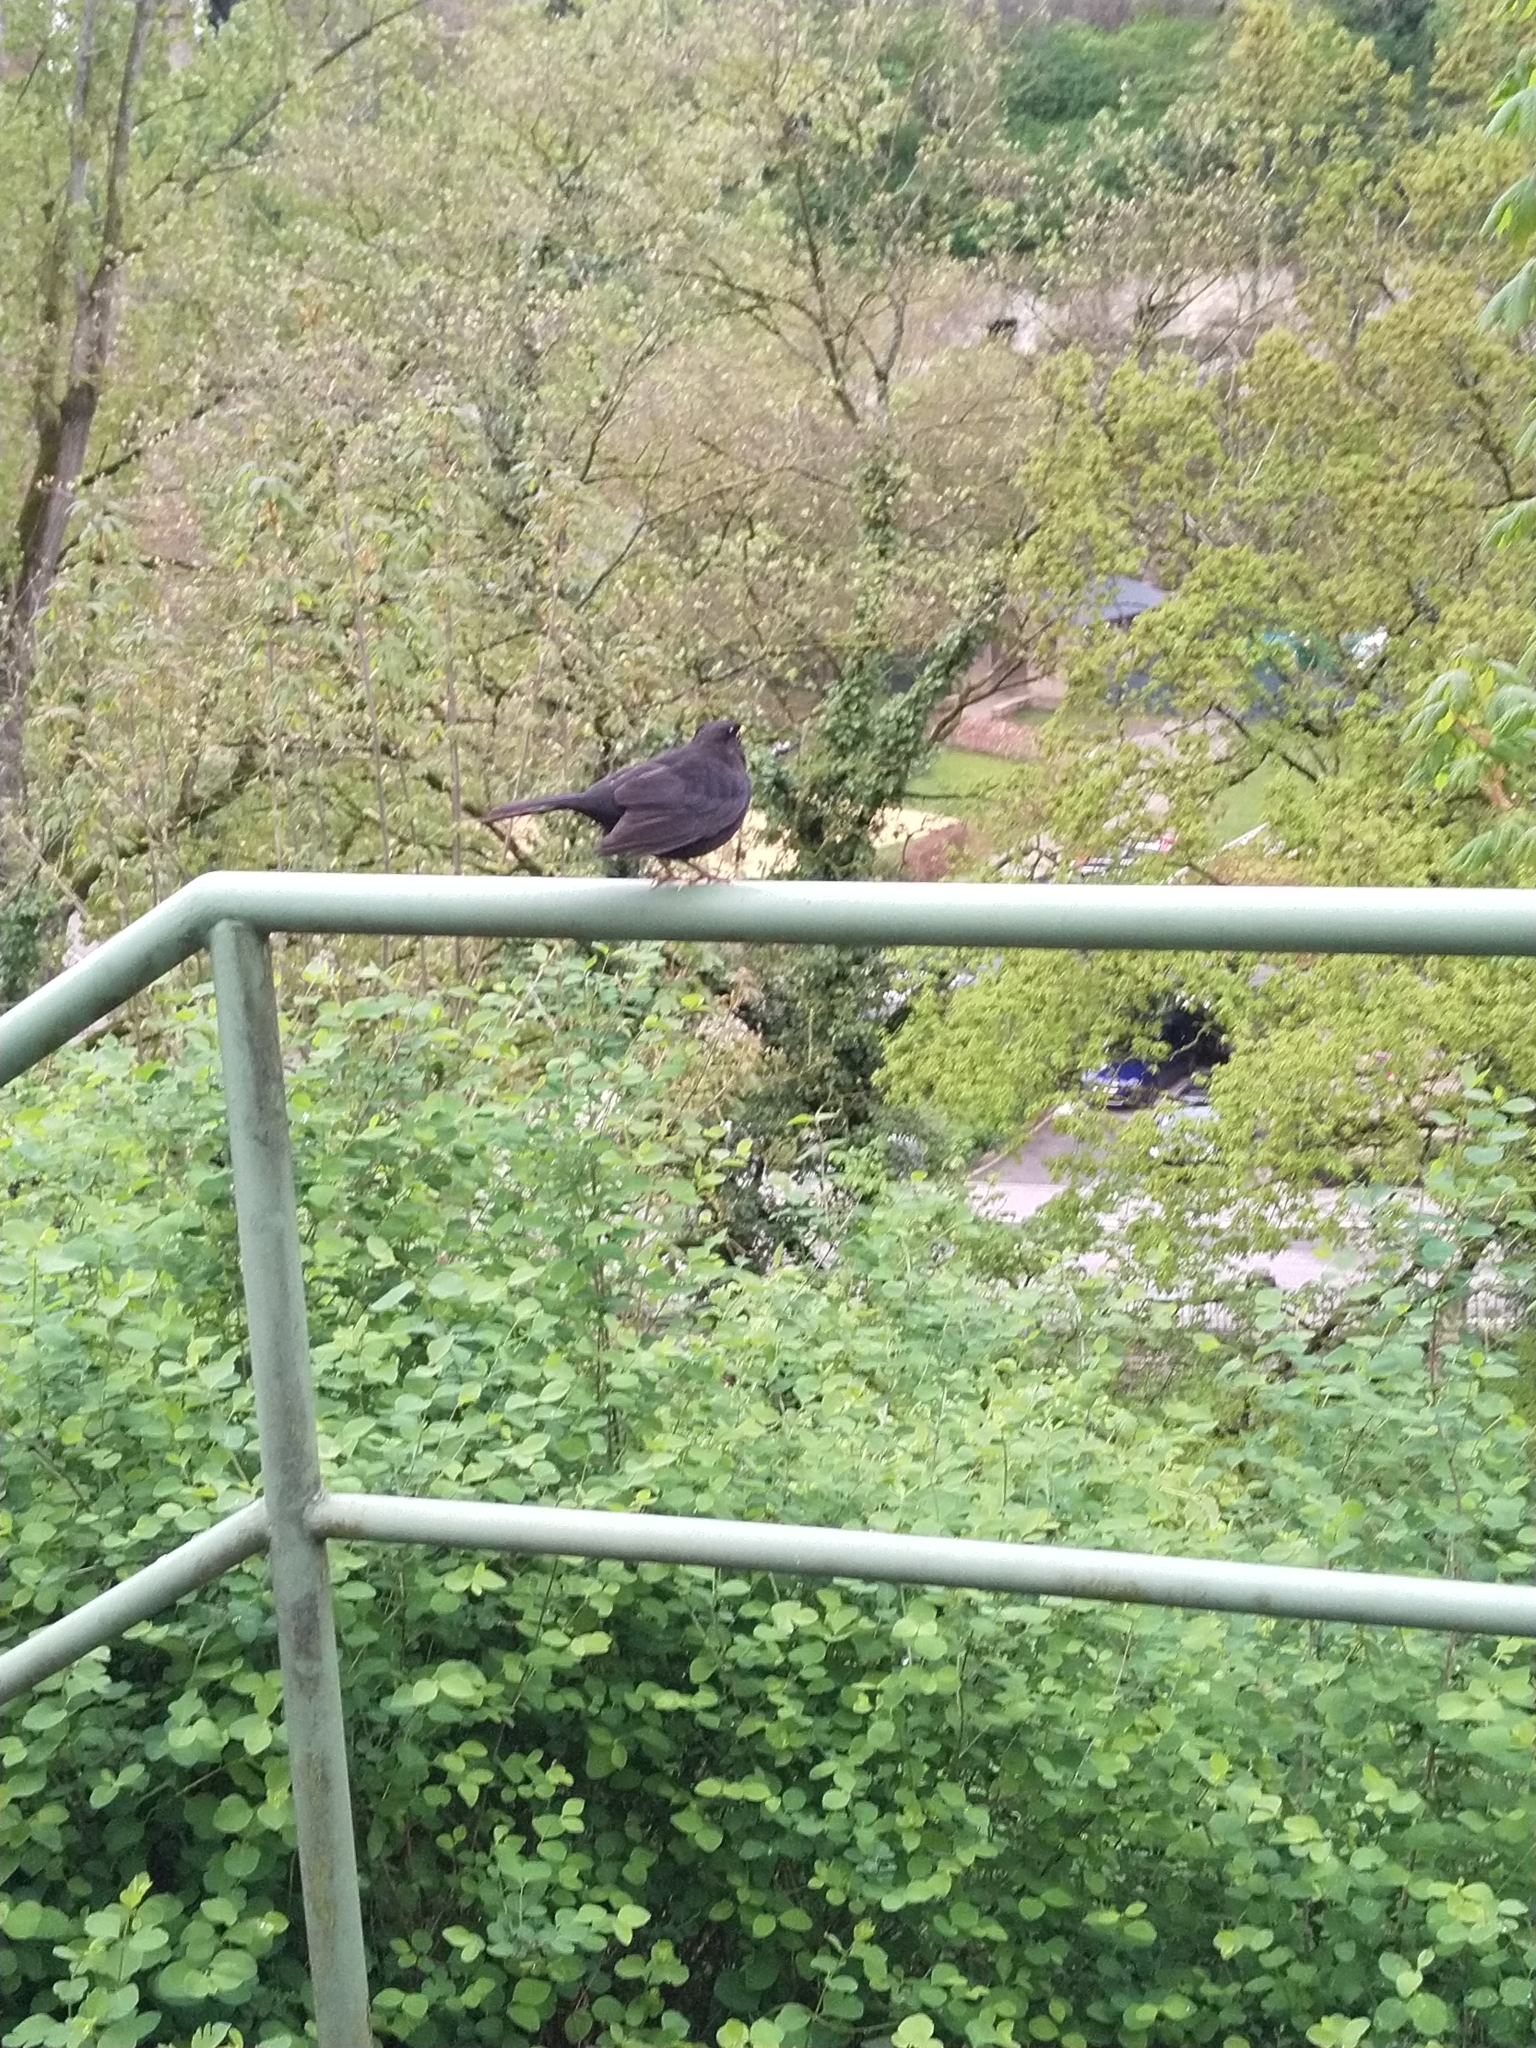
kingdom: Animalia
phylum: Chordata
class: Aves
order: Passeriformes
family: Turdidae
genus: Turdus
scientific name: Turdus merula
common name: Common blackbird
